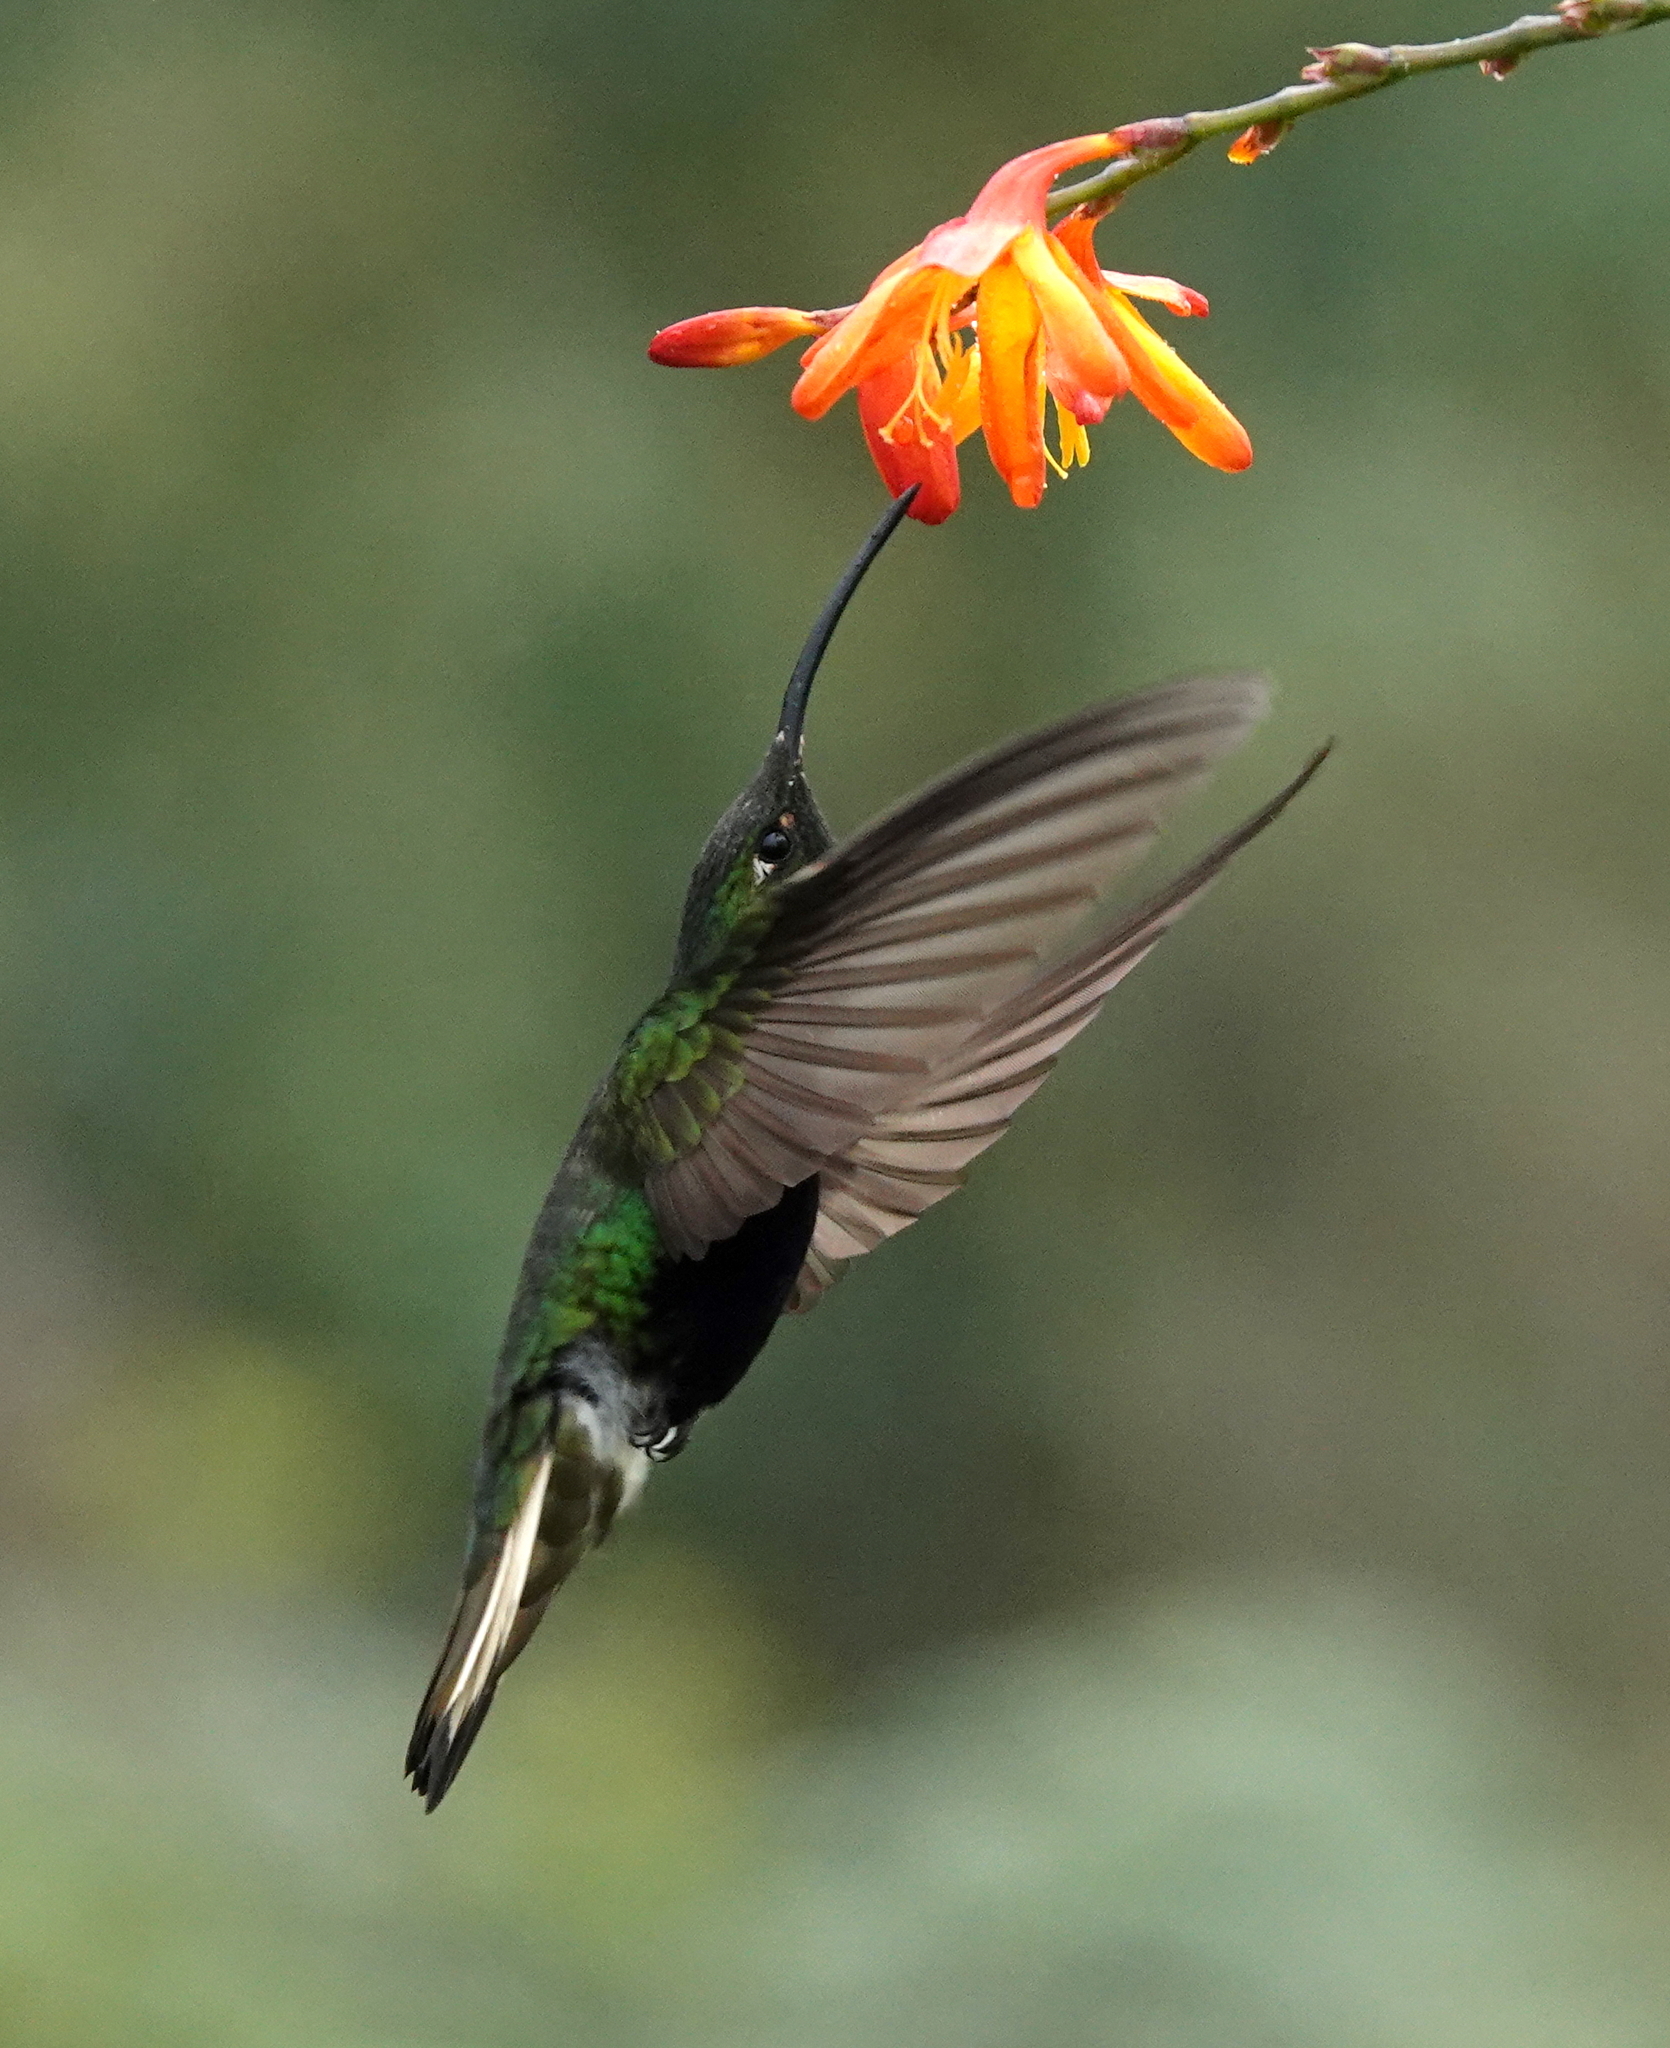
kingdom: Animalia
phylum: Chordata
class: Aves
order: Apodiformes
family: Trochilidae
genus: Lafresnaya
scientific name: Lafresnaya lafresnayi
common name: Mountain velvetbreast
